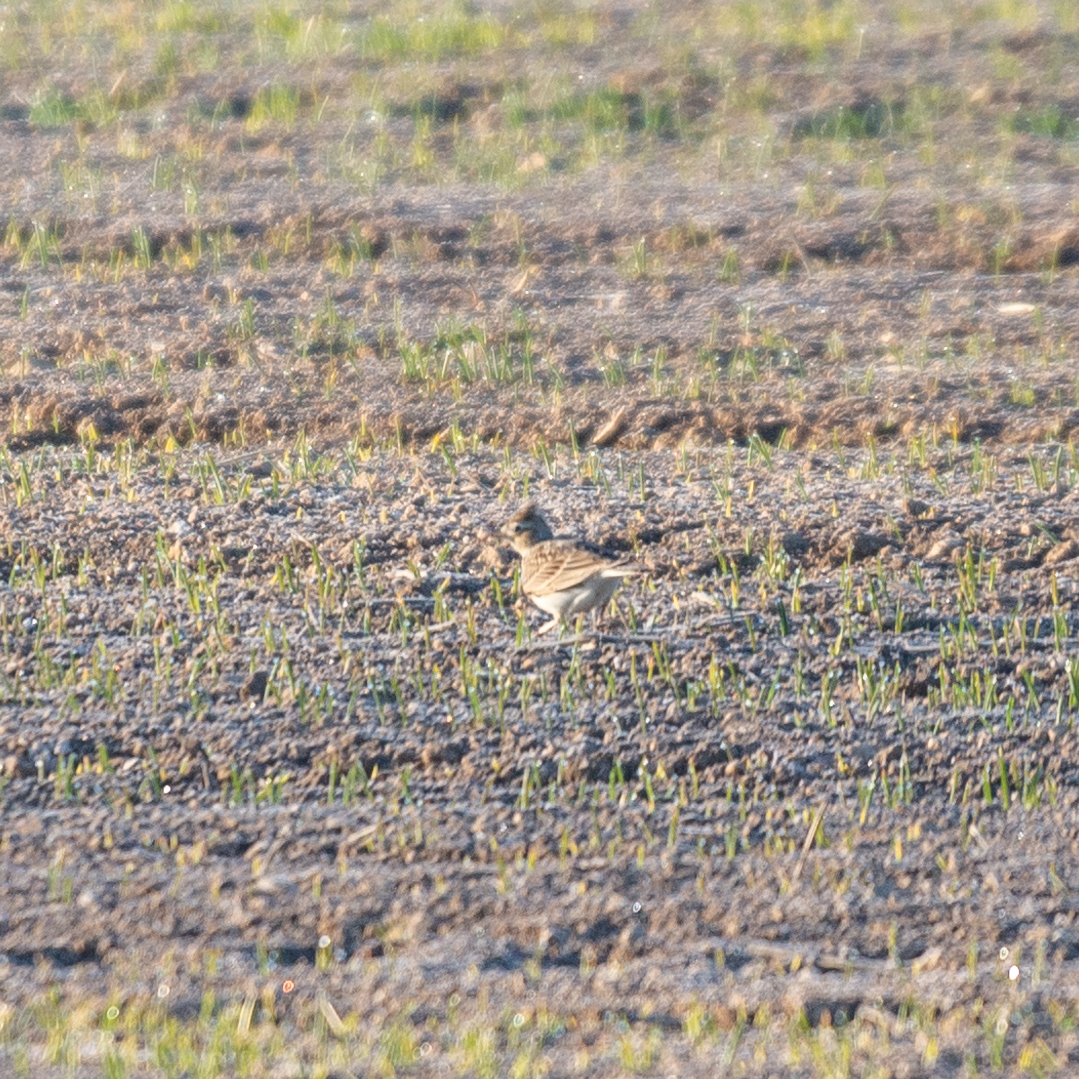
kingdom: Animalia
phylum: Chordata
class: Aves
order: Passeriformes
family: Alaudidae
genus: Alauda
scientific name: Alauda arvensis
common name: Eurasian skylark
